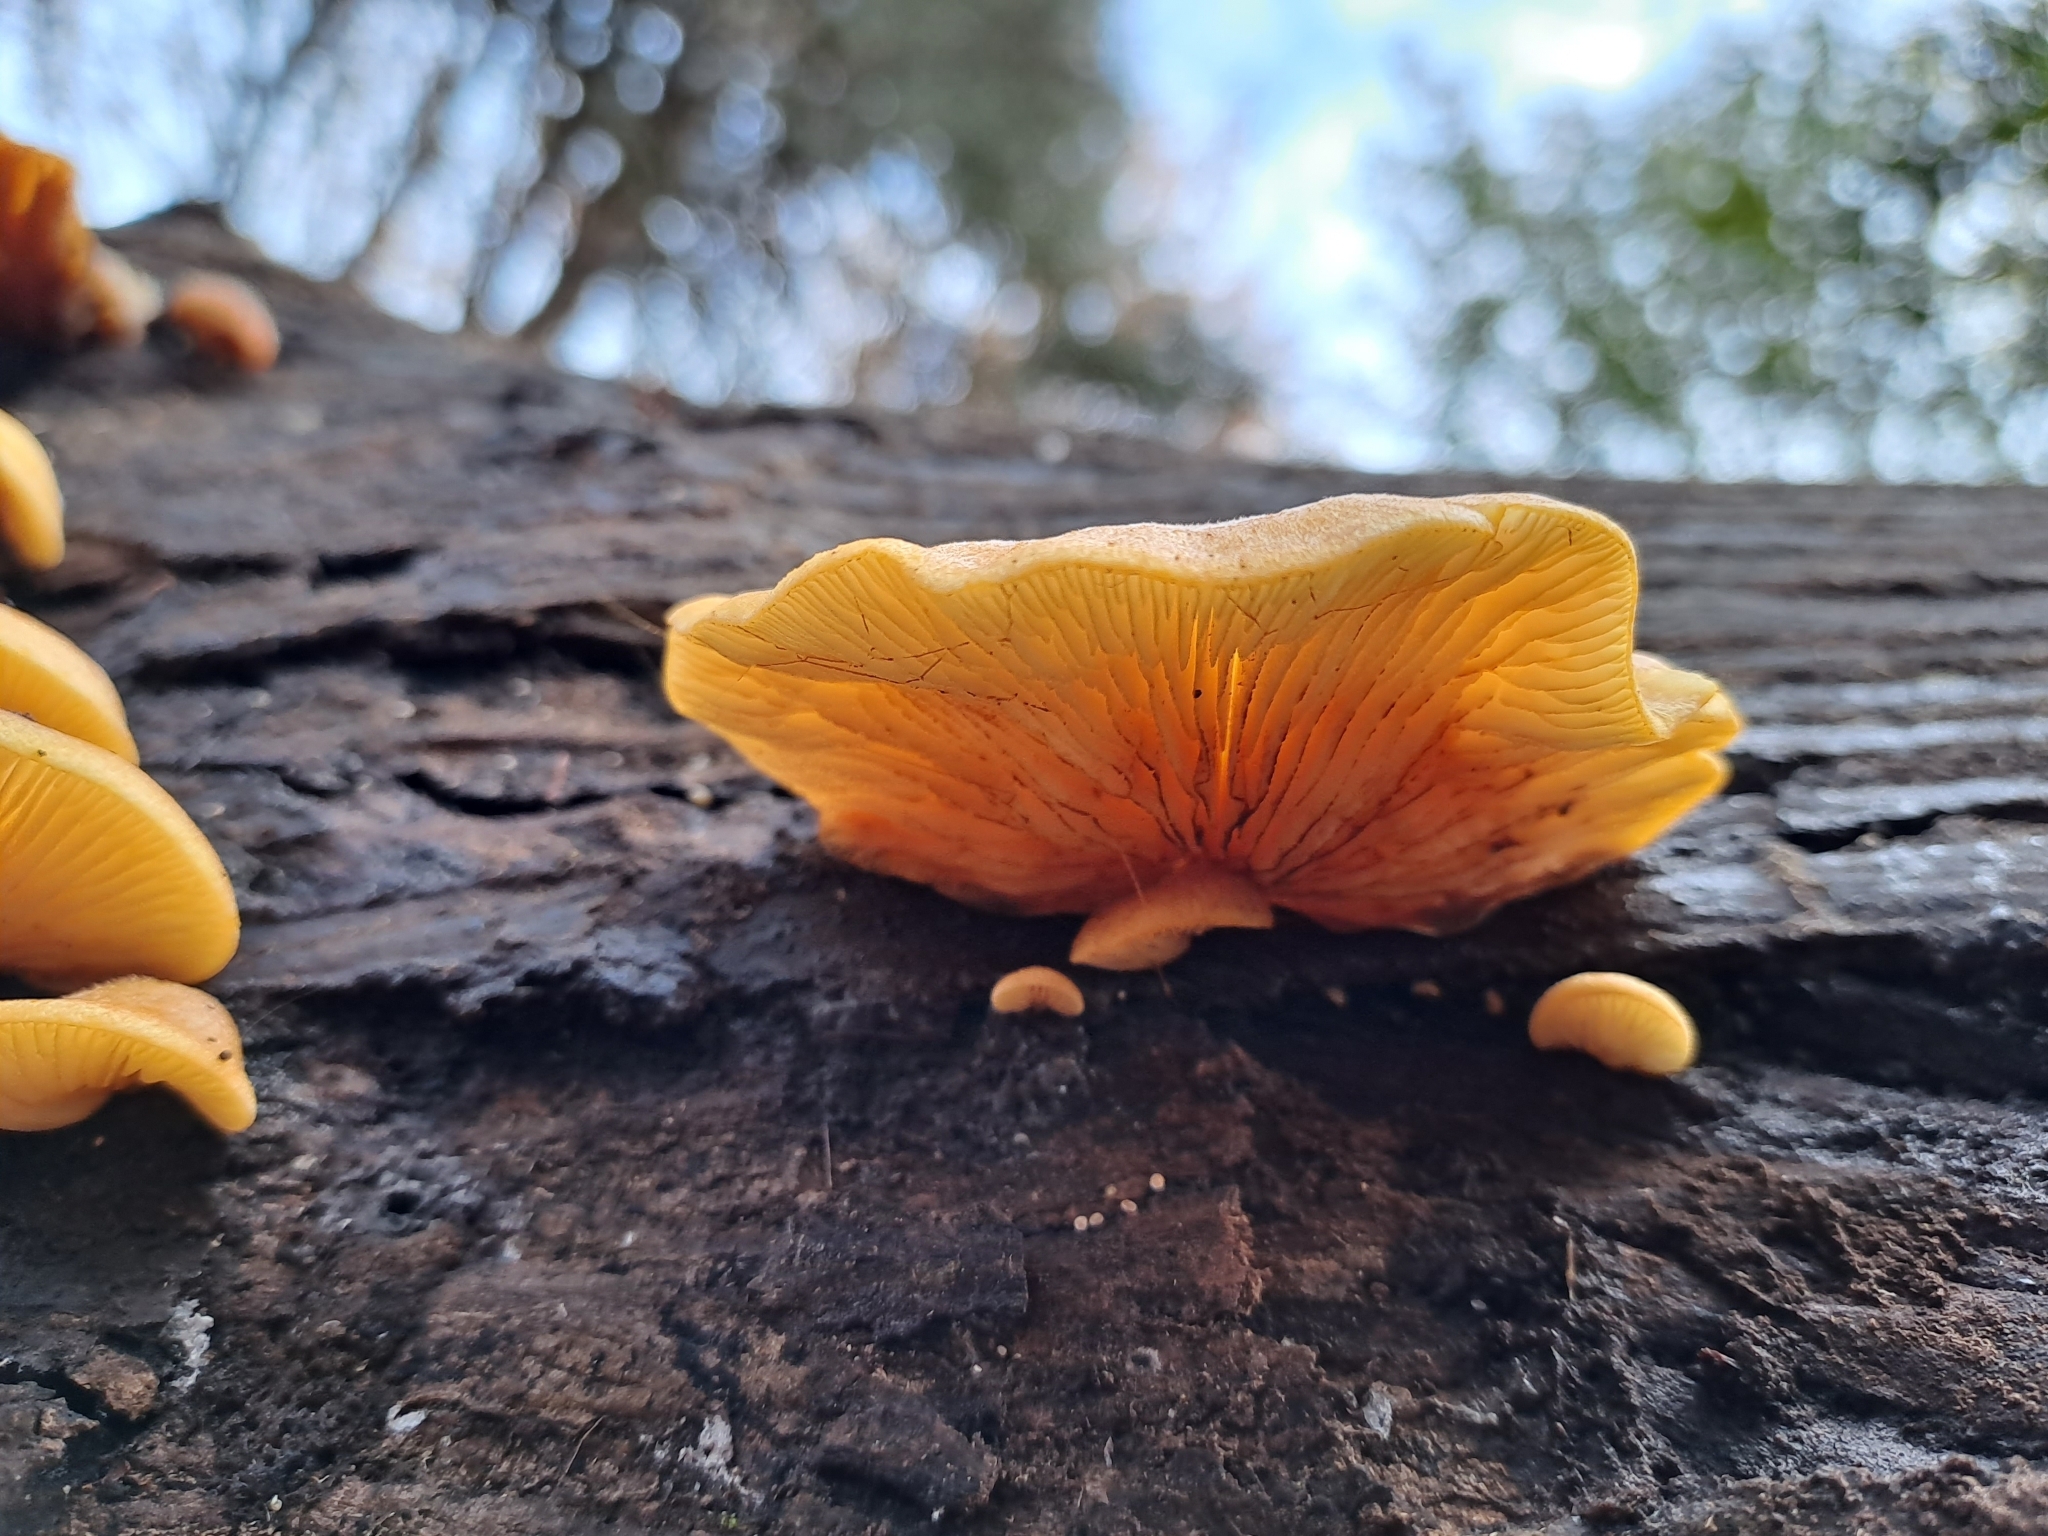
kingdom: Fungi
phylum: Basidiomycota
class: Agaricomycetes
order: Agaricales
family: Crepidotaceae
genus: Crepidotus
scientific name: Crepidotus praecipuus
